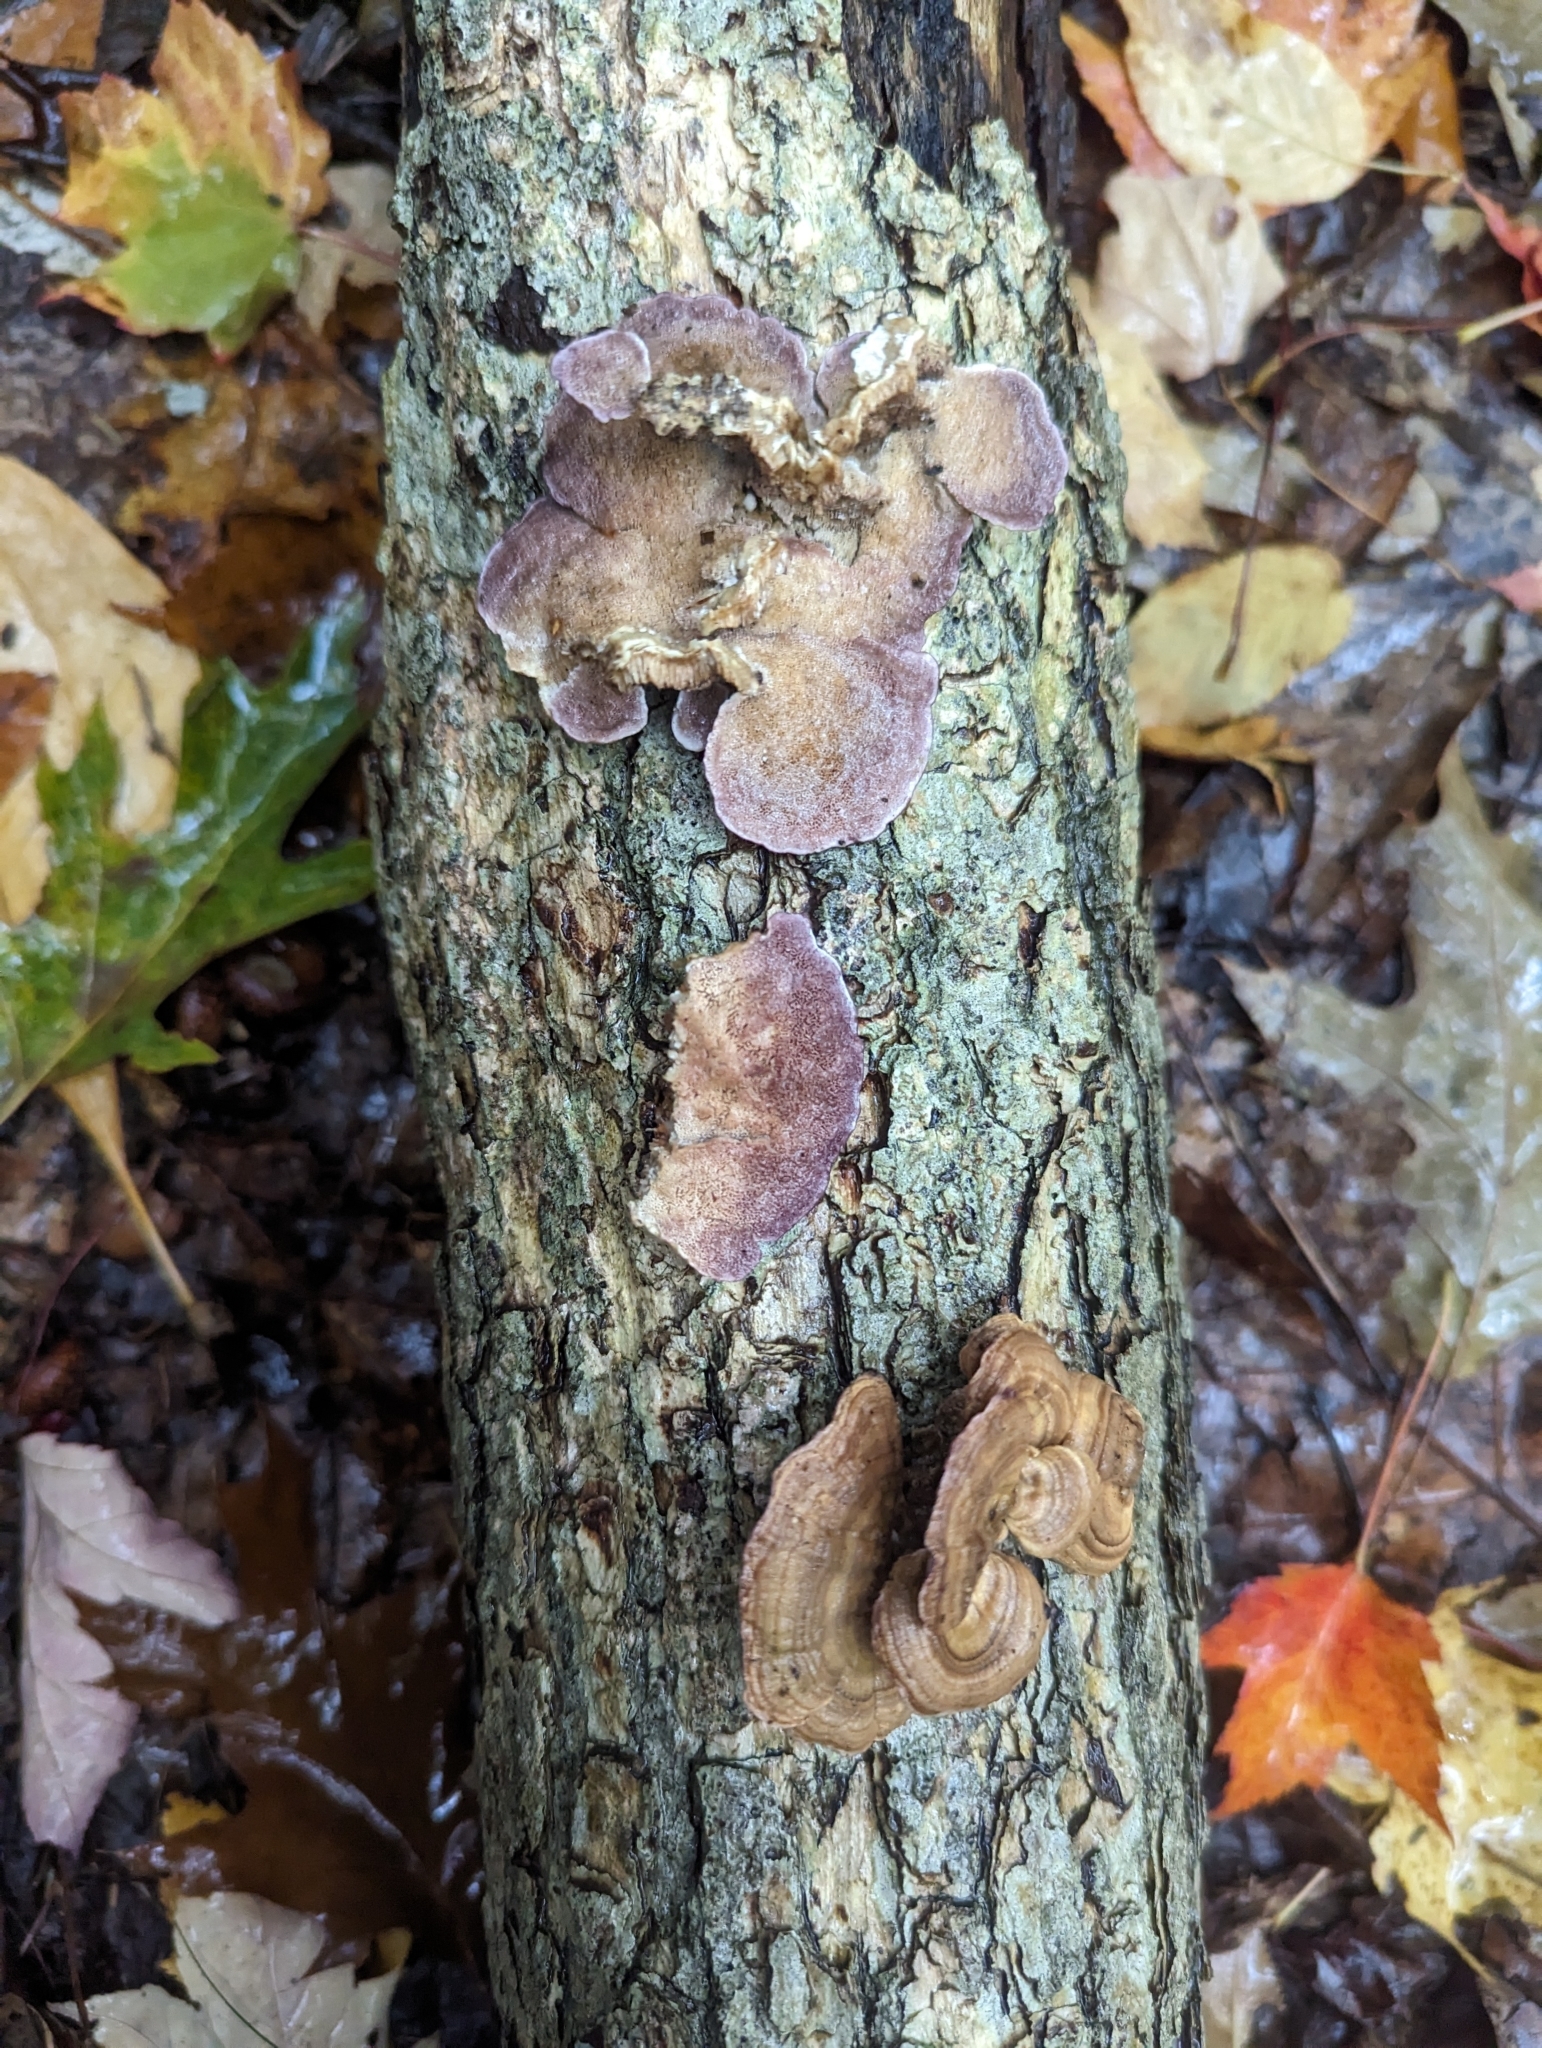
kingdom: Fungi
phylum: Basidiomycota
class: Agaricomycetes
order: Hymenochaetales
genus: Trichaptum
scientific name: Trichaptum biforme
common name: Violet-toothed polypore
